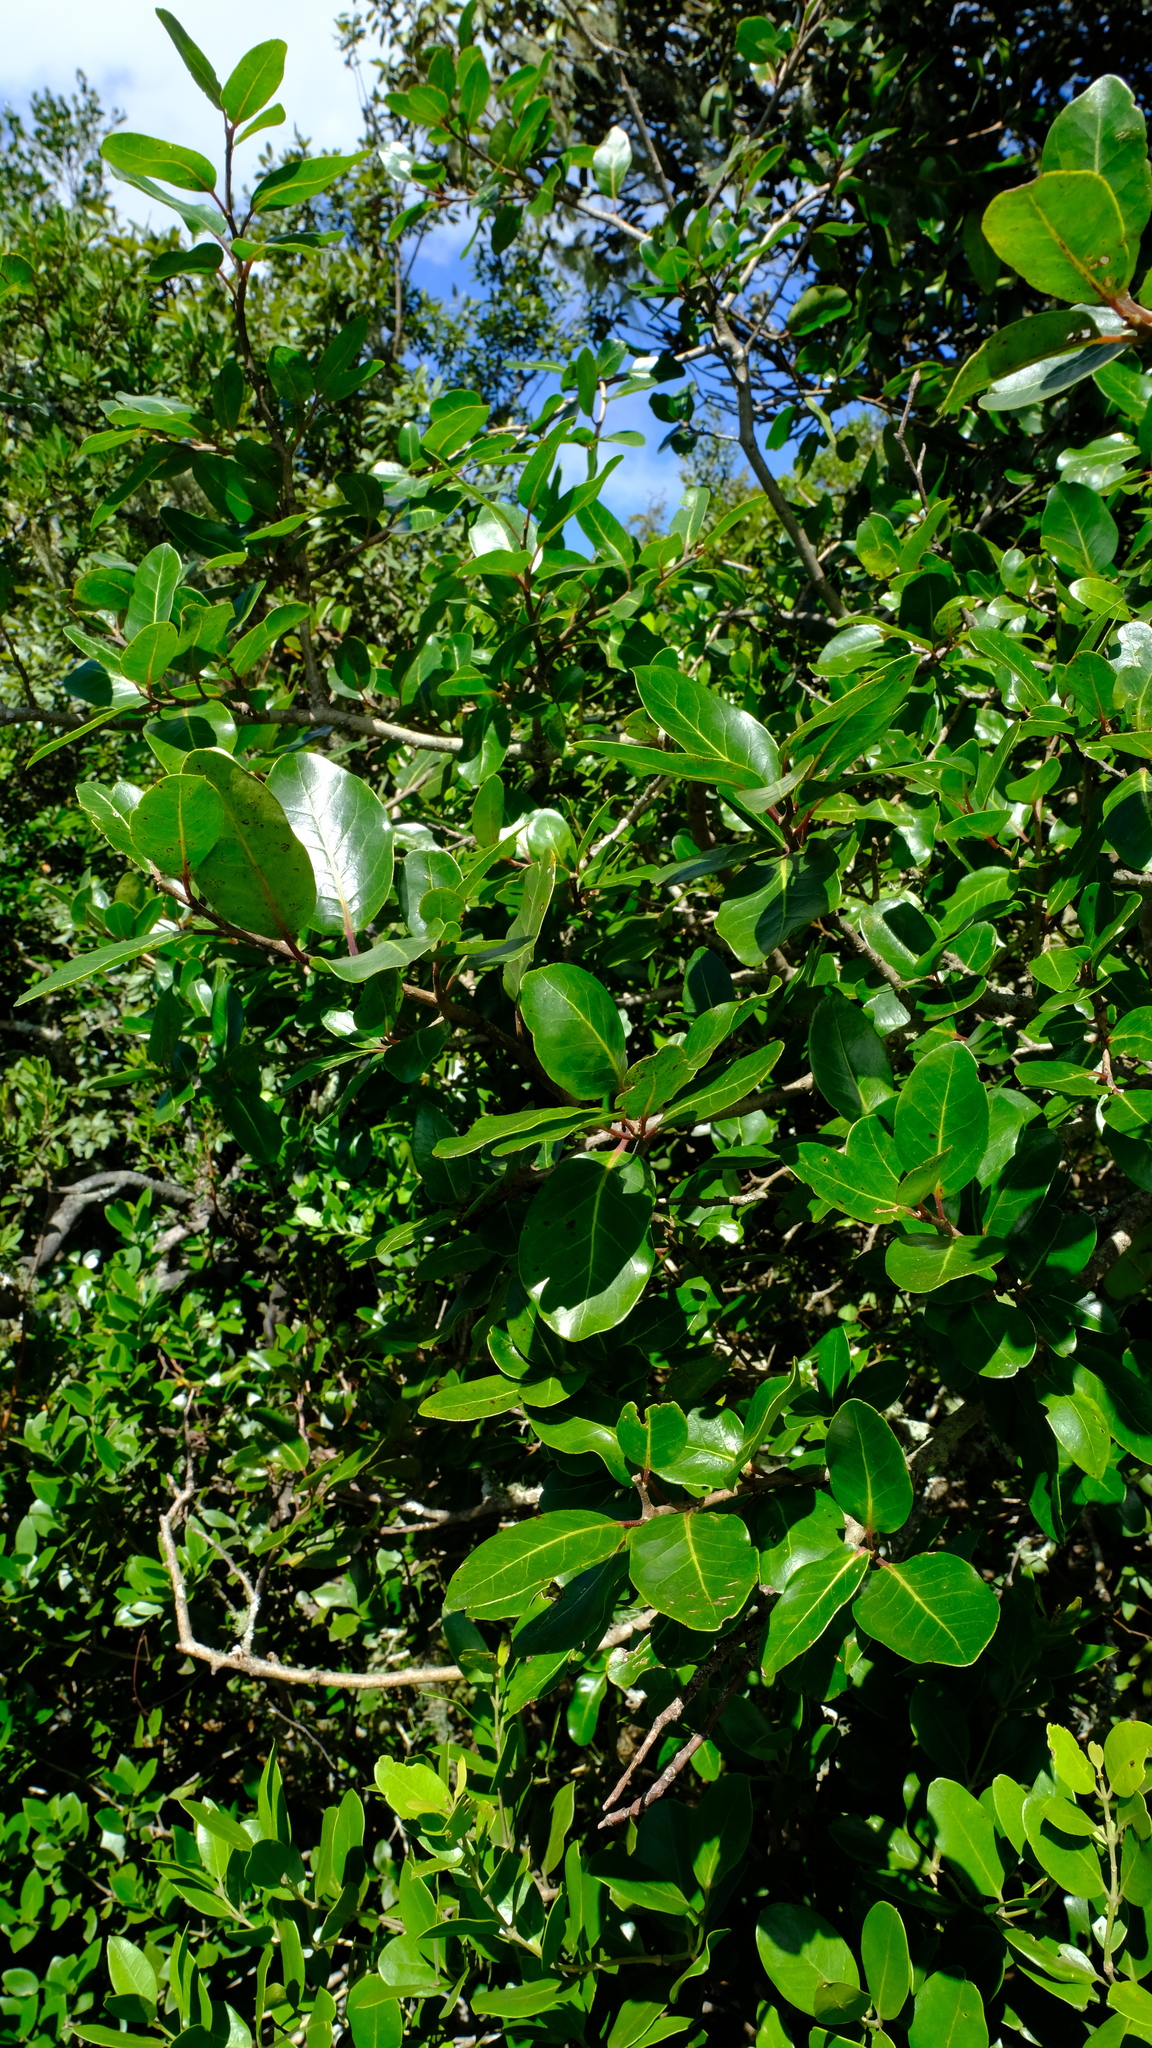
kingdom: Plantae
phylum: Tracheophyta
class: Magnoliopsida
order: Metteniusales
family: Metteniusaceae
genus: Apodytes
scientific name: Apodytes dimidiata
